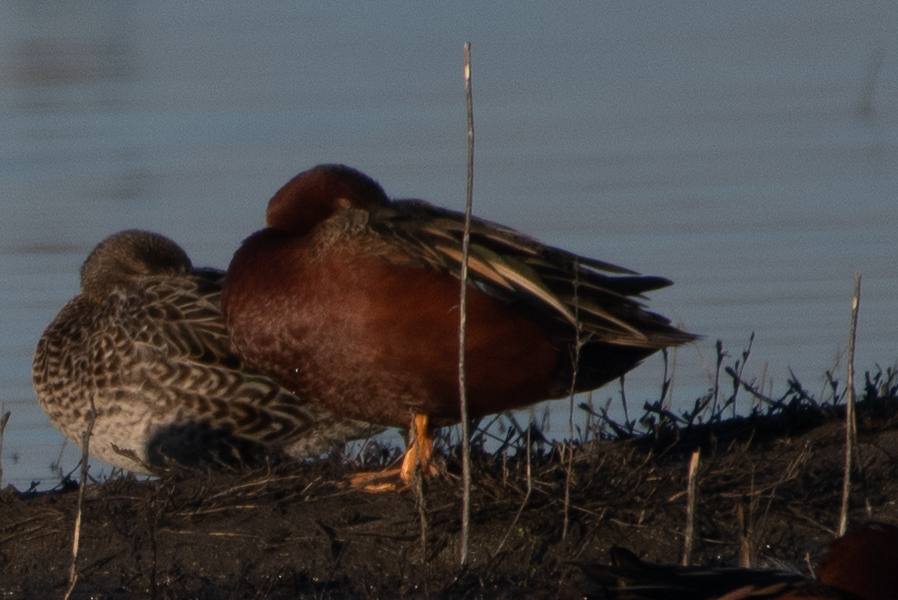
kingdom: Animalia
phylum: Chordata
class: Aves
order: Anseriformes
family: Anatidae
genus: Spatula
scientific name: Spatula cyanoptera
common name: Cinnamon teal
